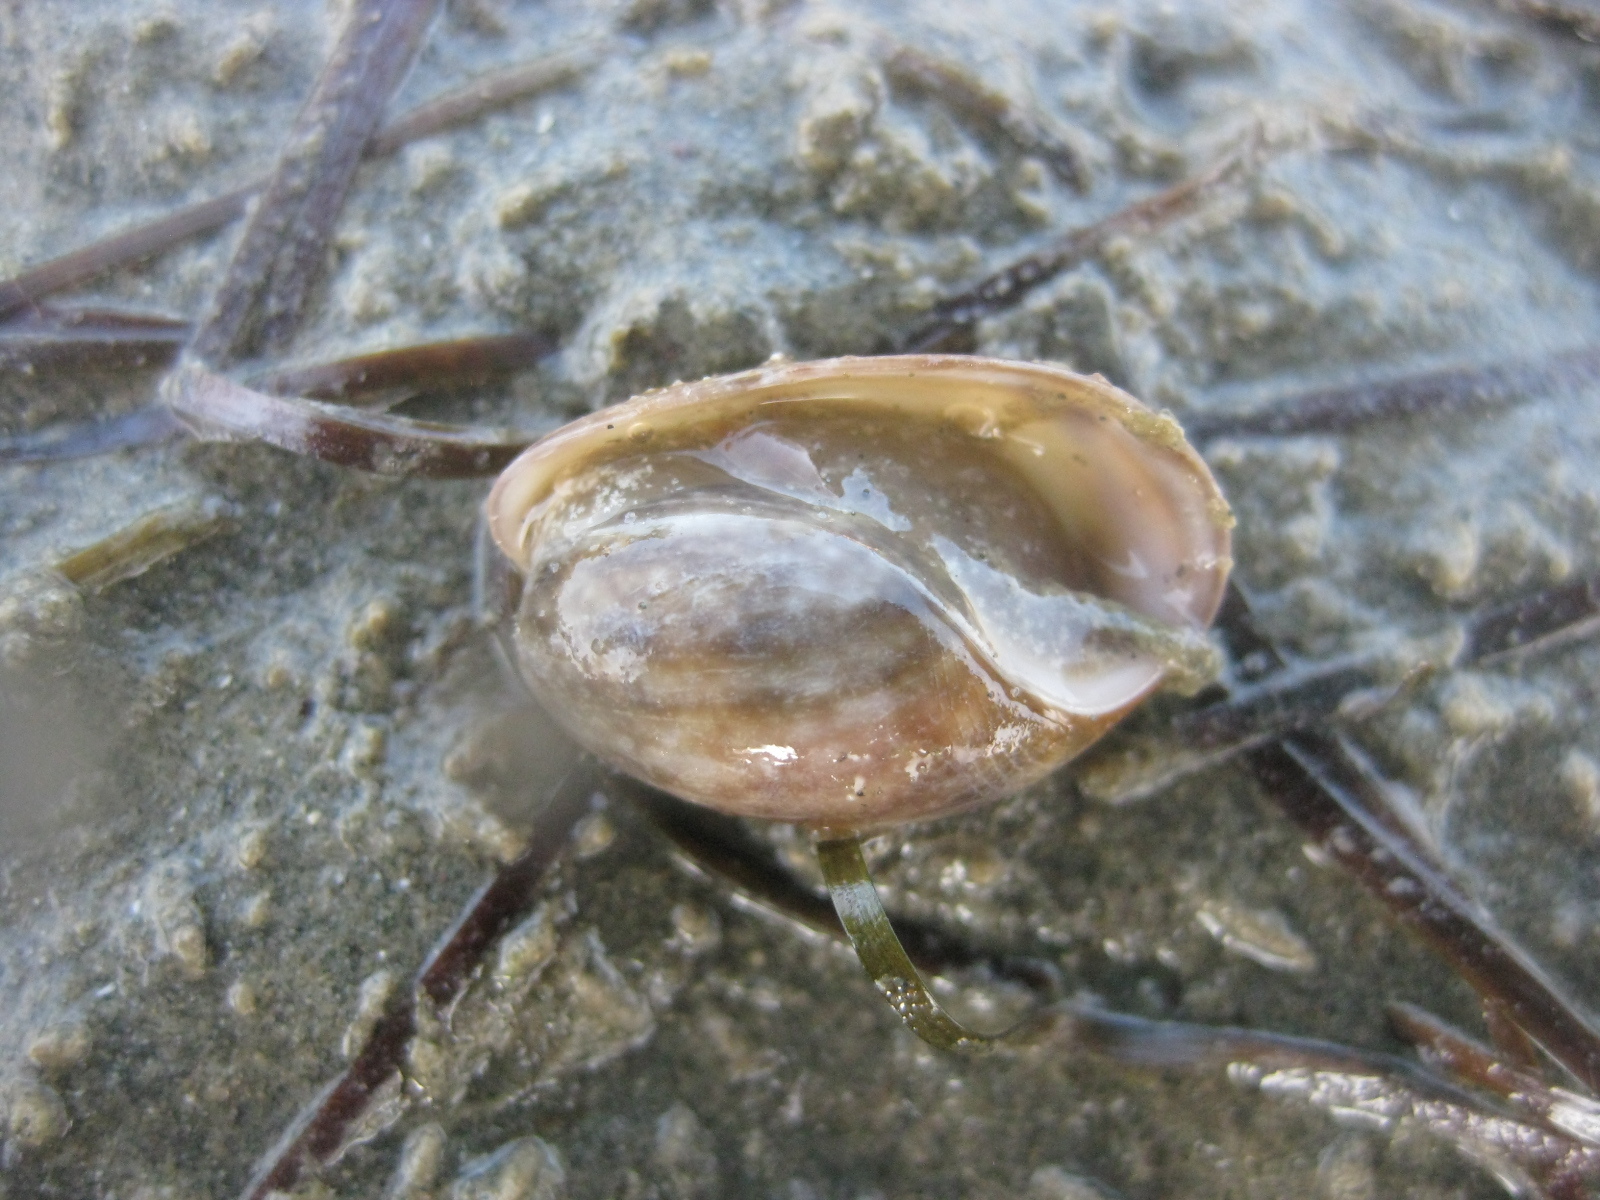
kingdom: Animalia
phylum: Mollusca
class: Gastropoda
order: Cephalaspidea
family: Bullidae
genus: Bulla
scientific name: Bulla quoyii
